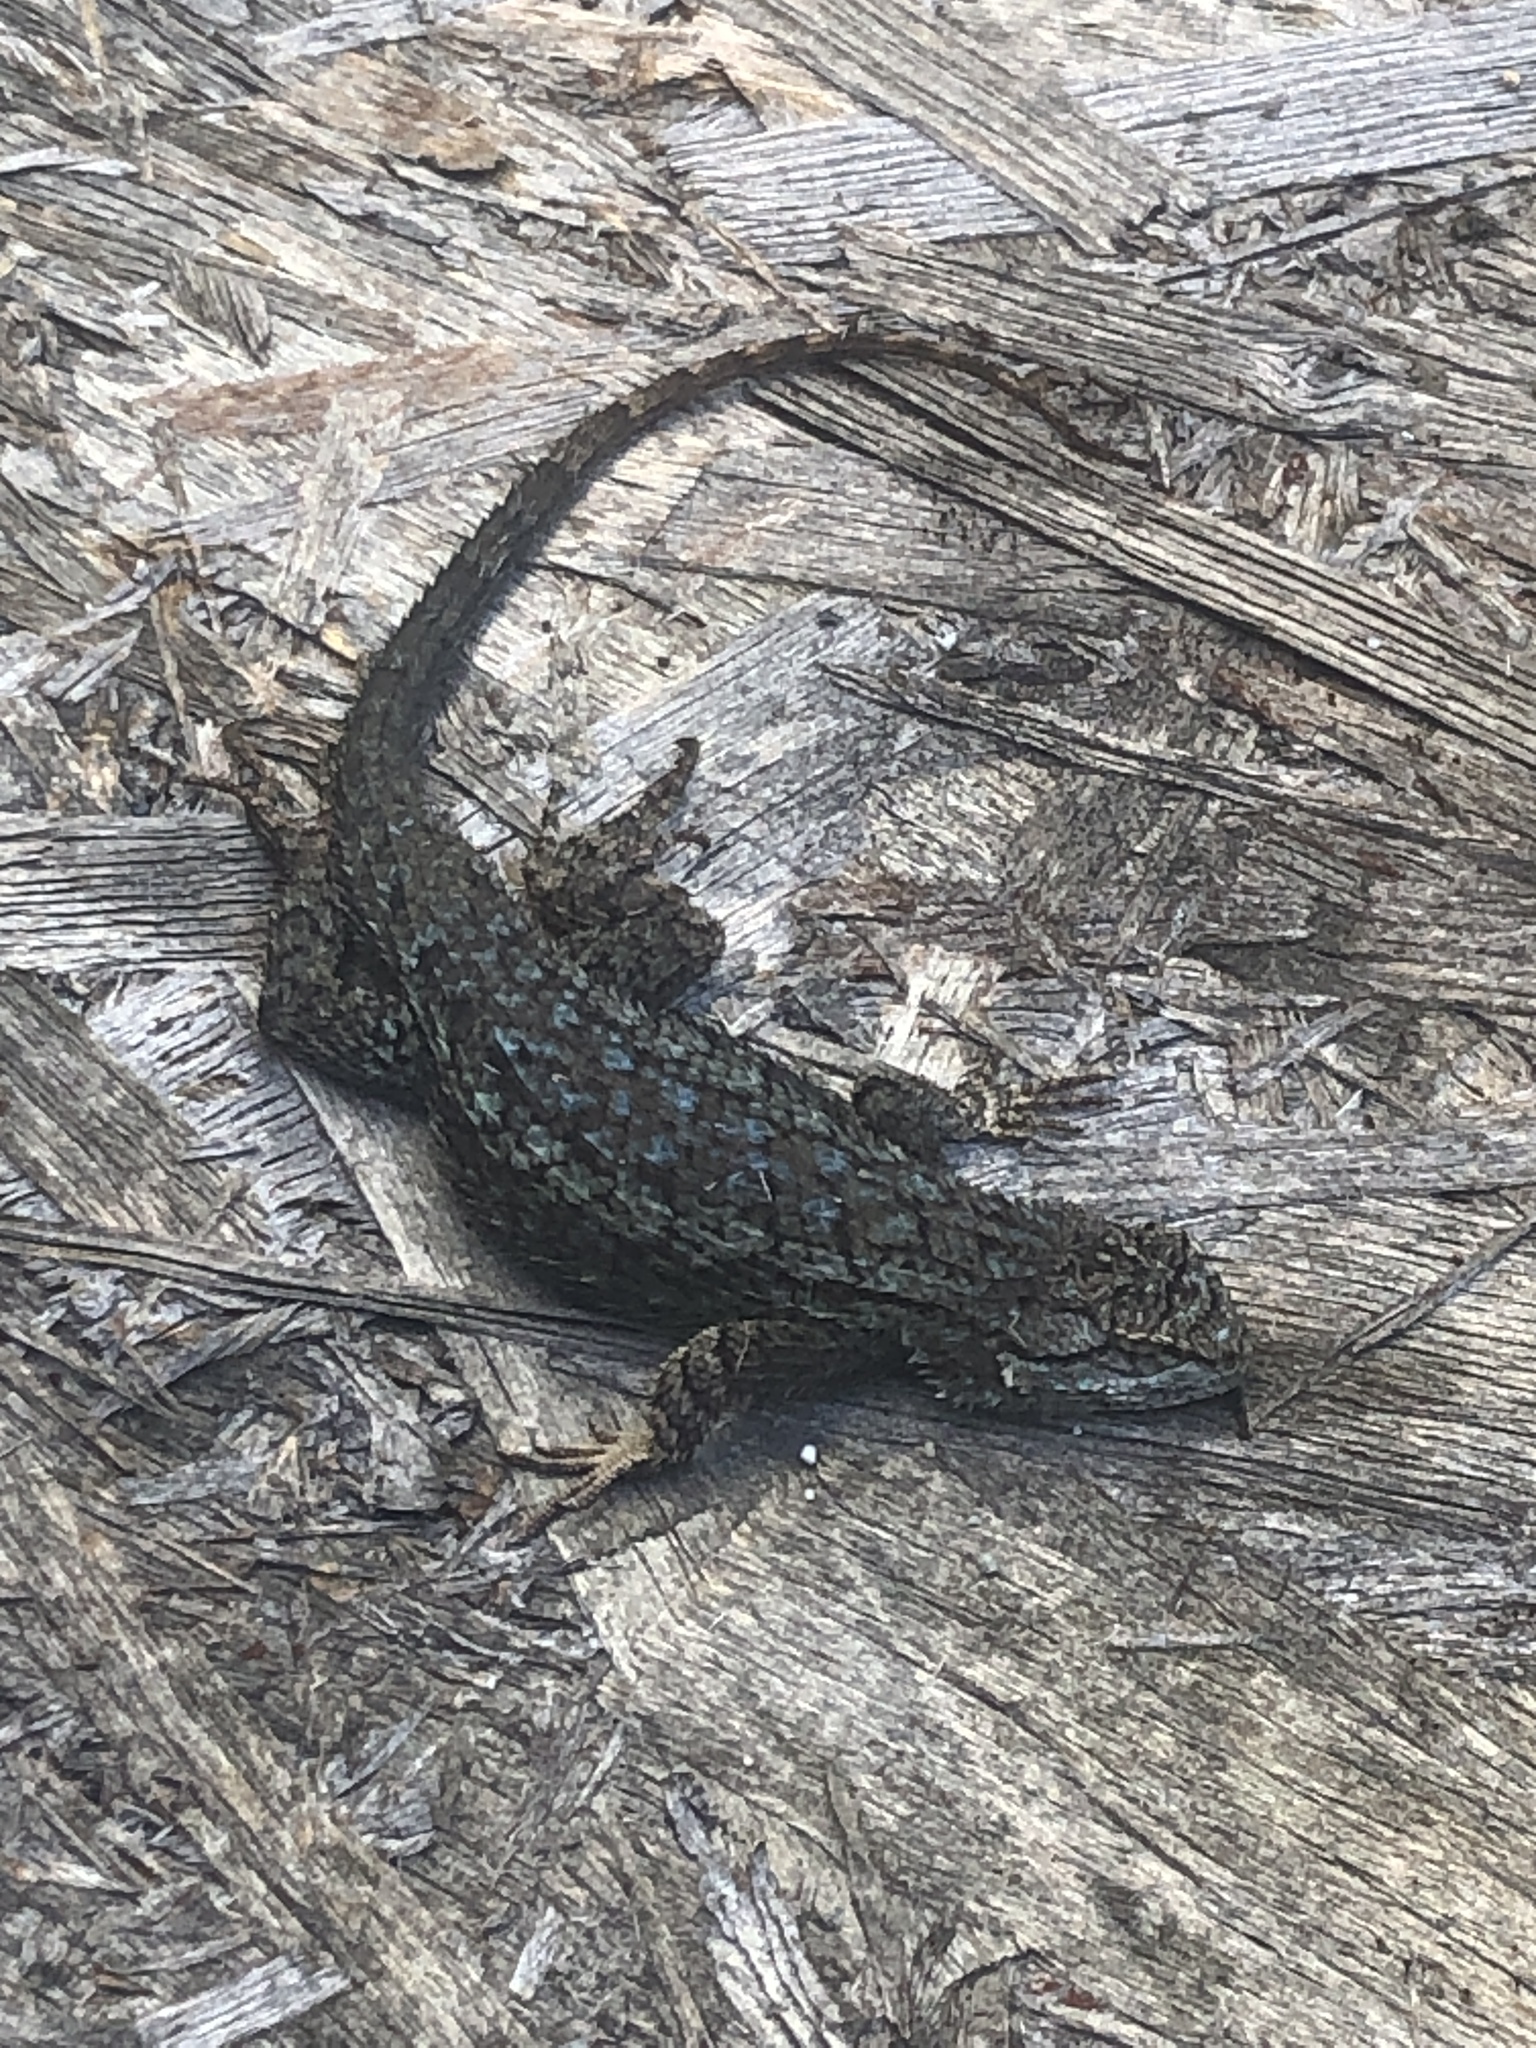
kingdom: Animalia
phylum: Chordata
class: Squamata
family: Phrynosomatidae
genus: Sceloporus
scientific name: Sceloporus occidentalis
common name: Western fence lizard
